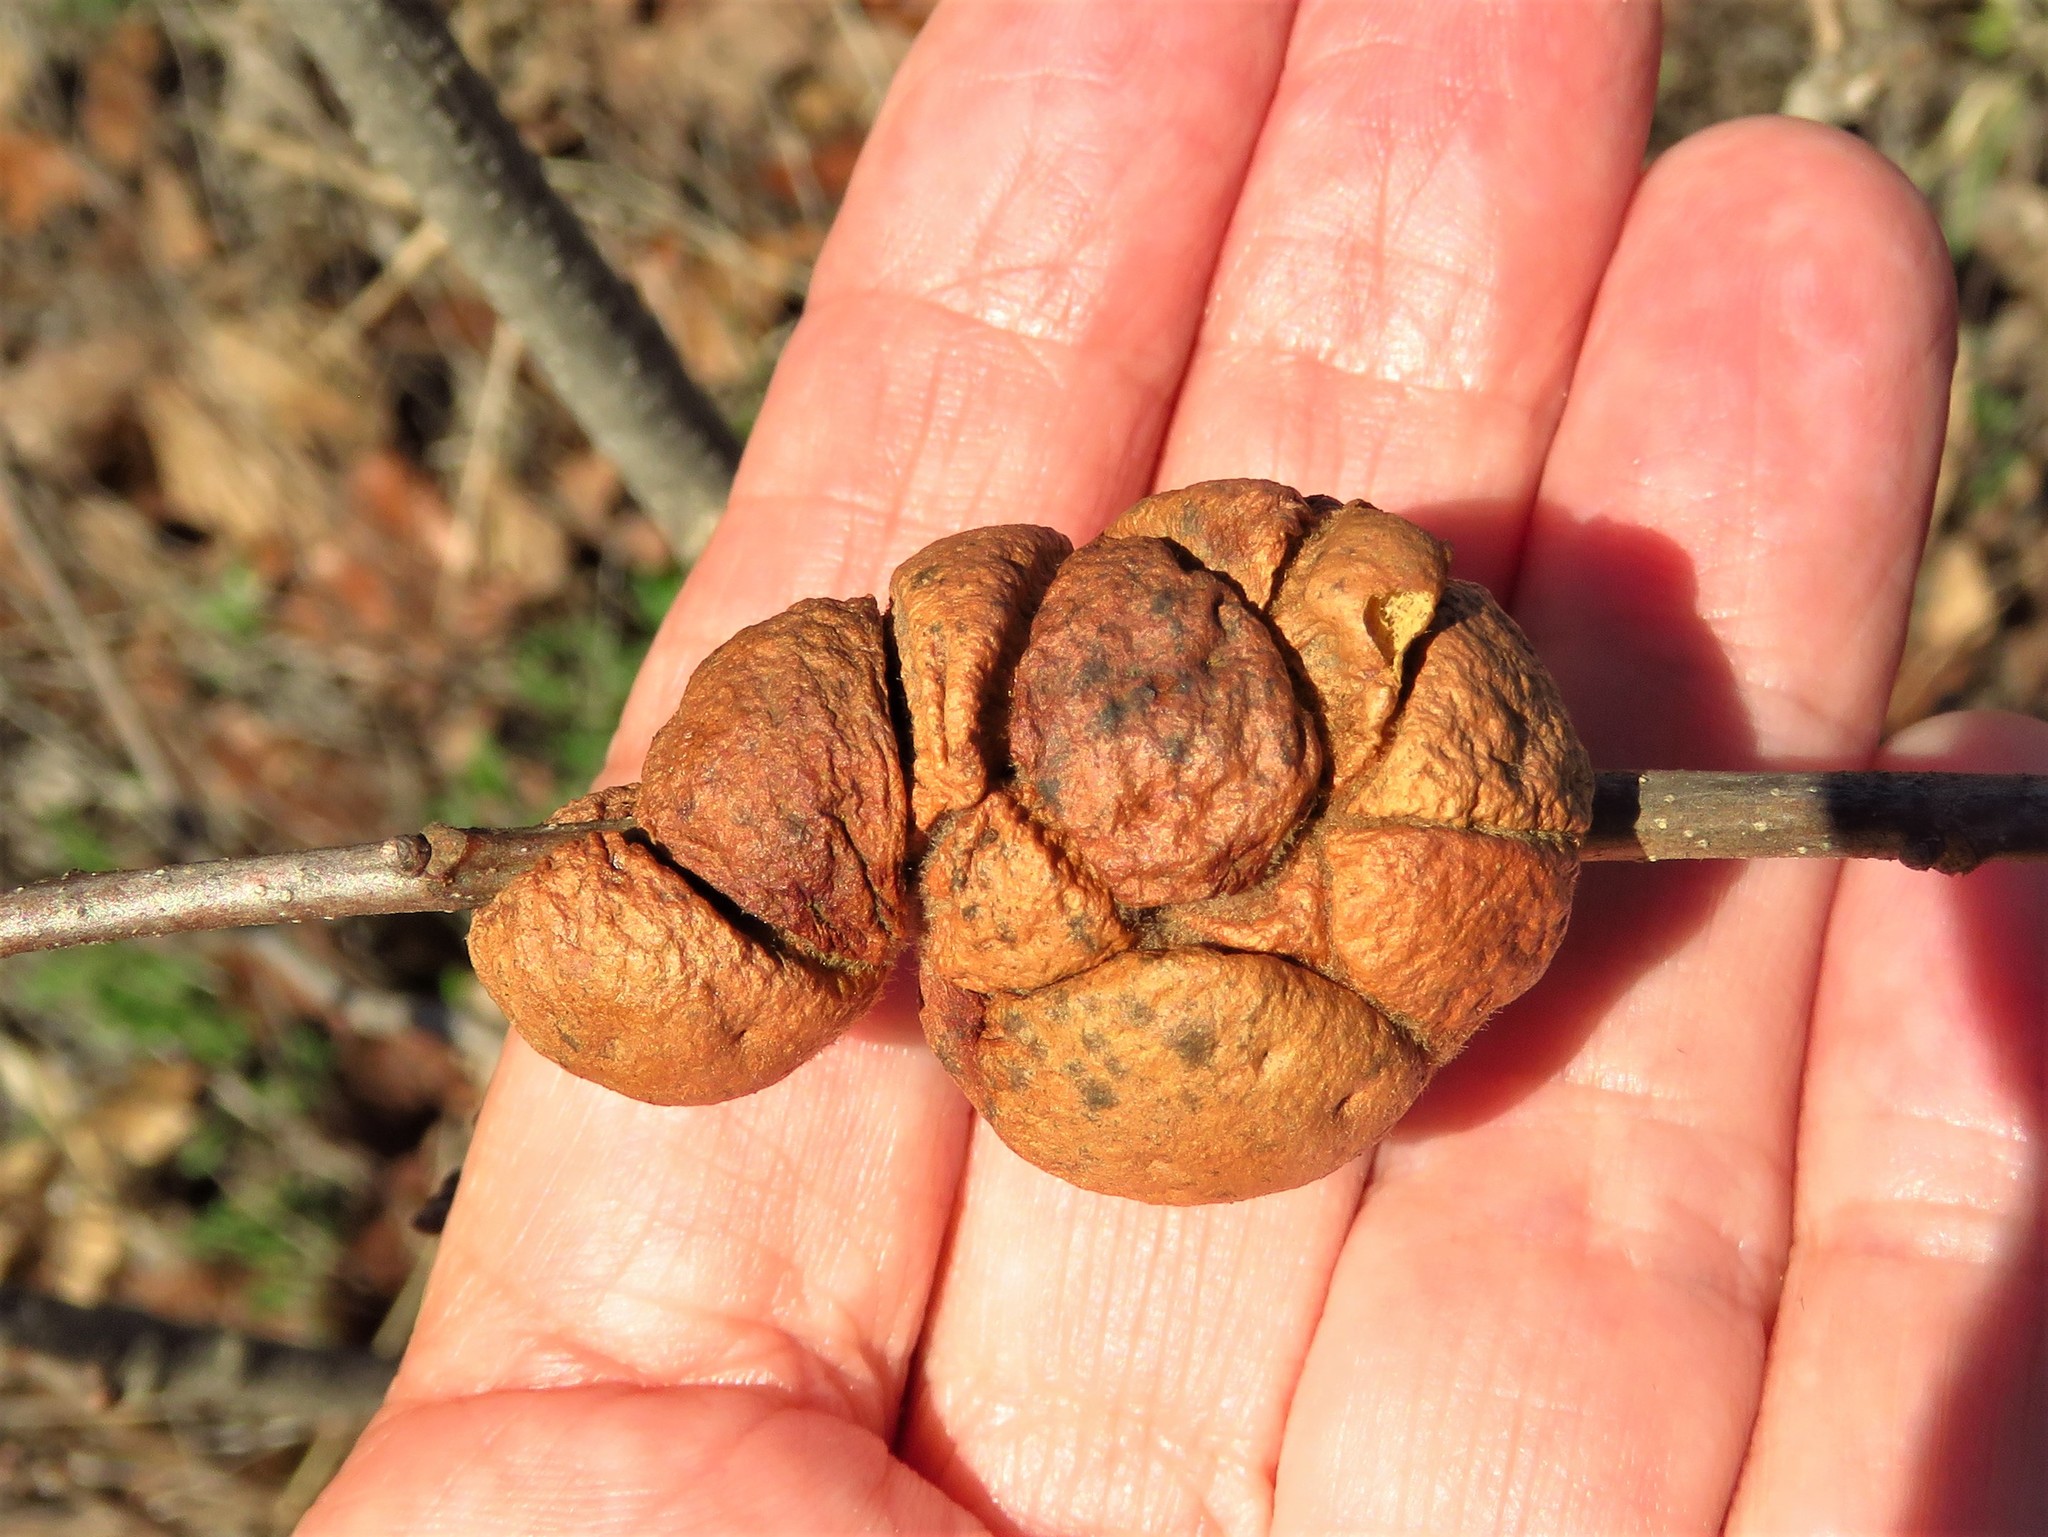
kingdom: Animalia
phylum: Arthropoda
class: Insecta
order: Hymenoptera
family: Cynipidae
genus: Disholcaspis
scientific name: Disholcaspis
